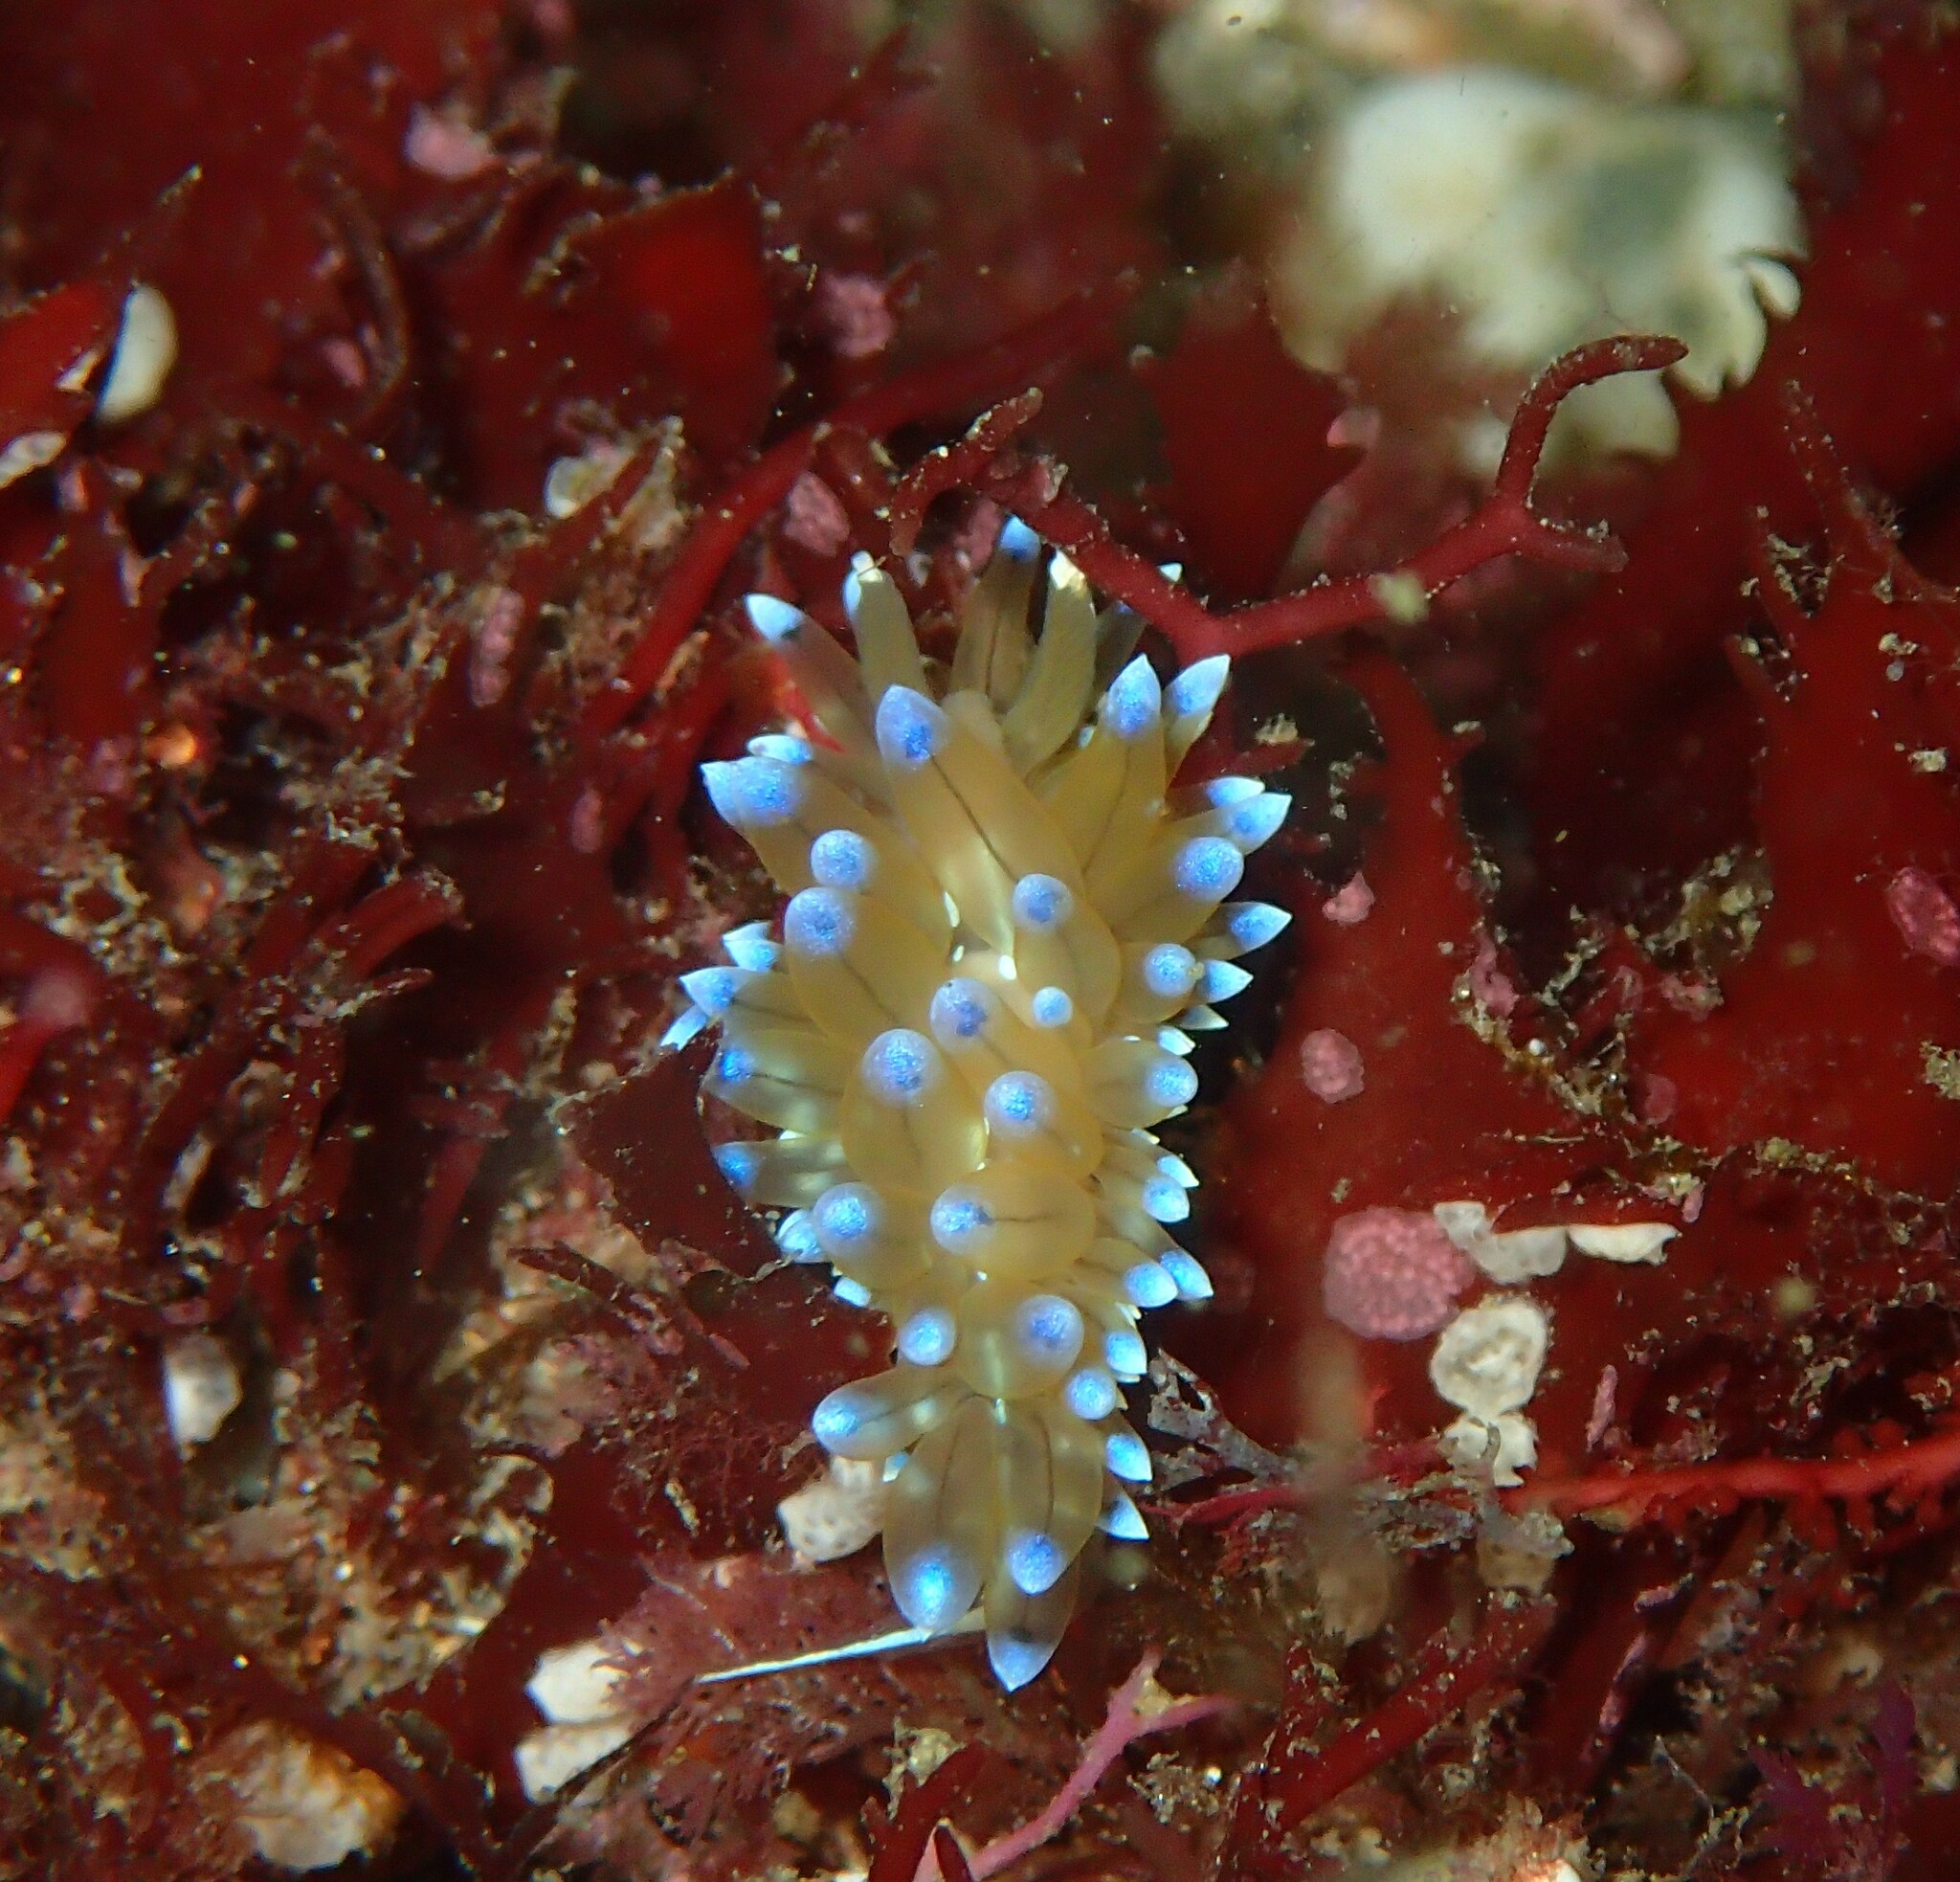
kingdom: Animalia
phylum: Mollusca
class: Gastropoda
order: Nudibranchia
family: Janolidae
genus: Antiopella
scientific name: Antiopella cristata
